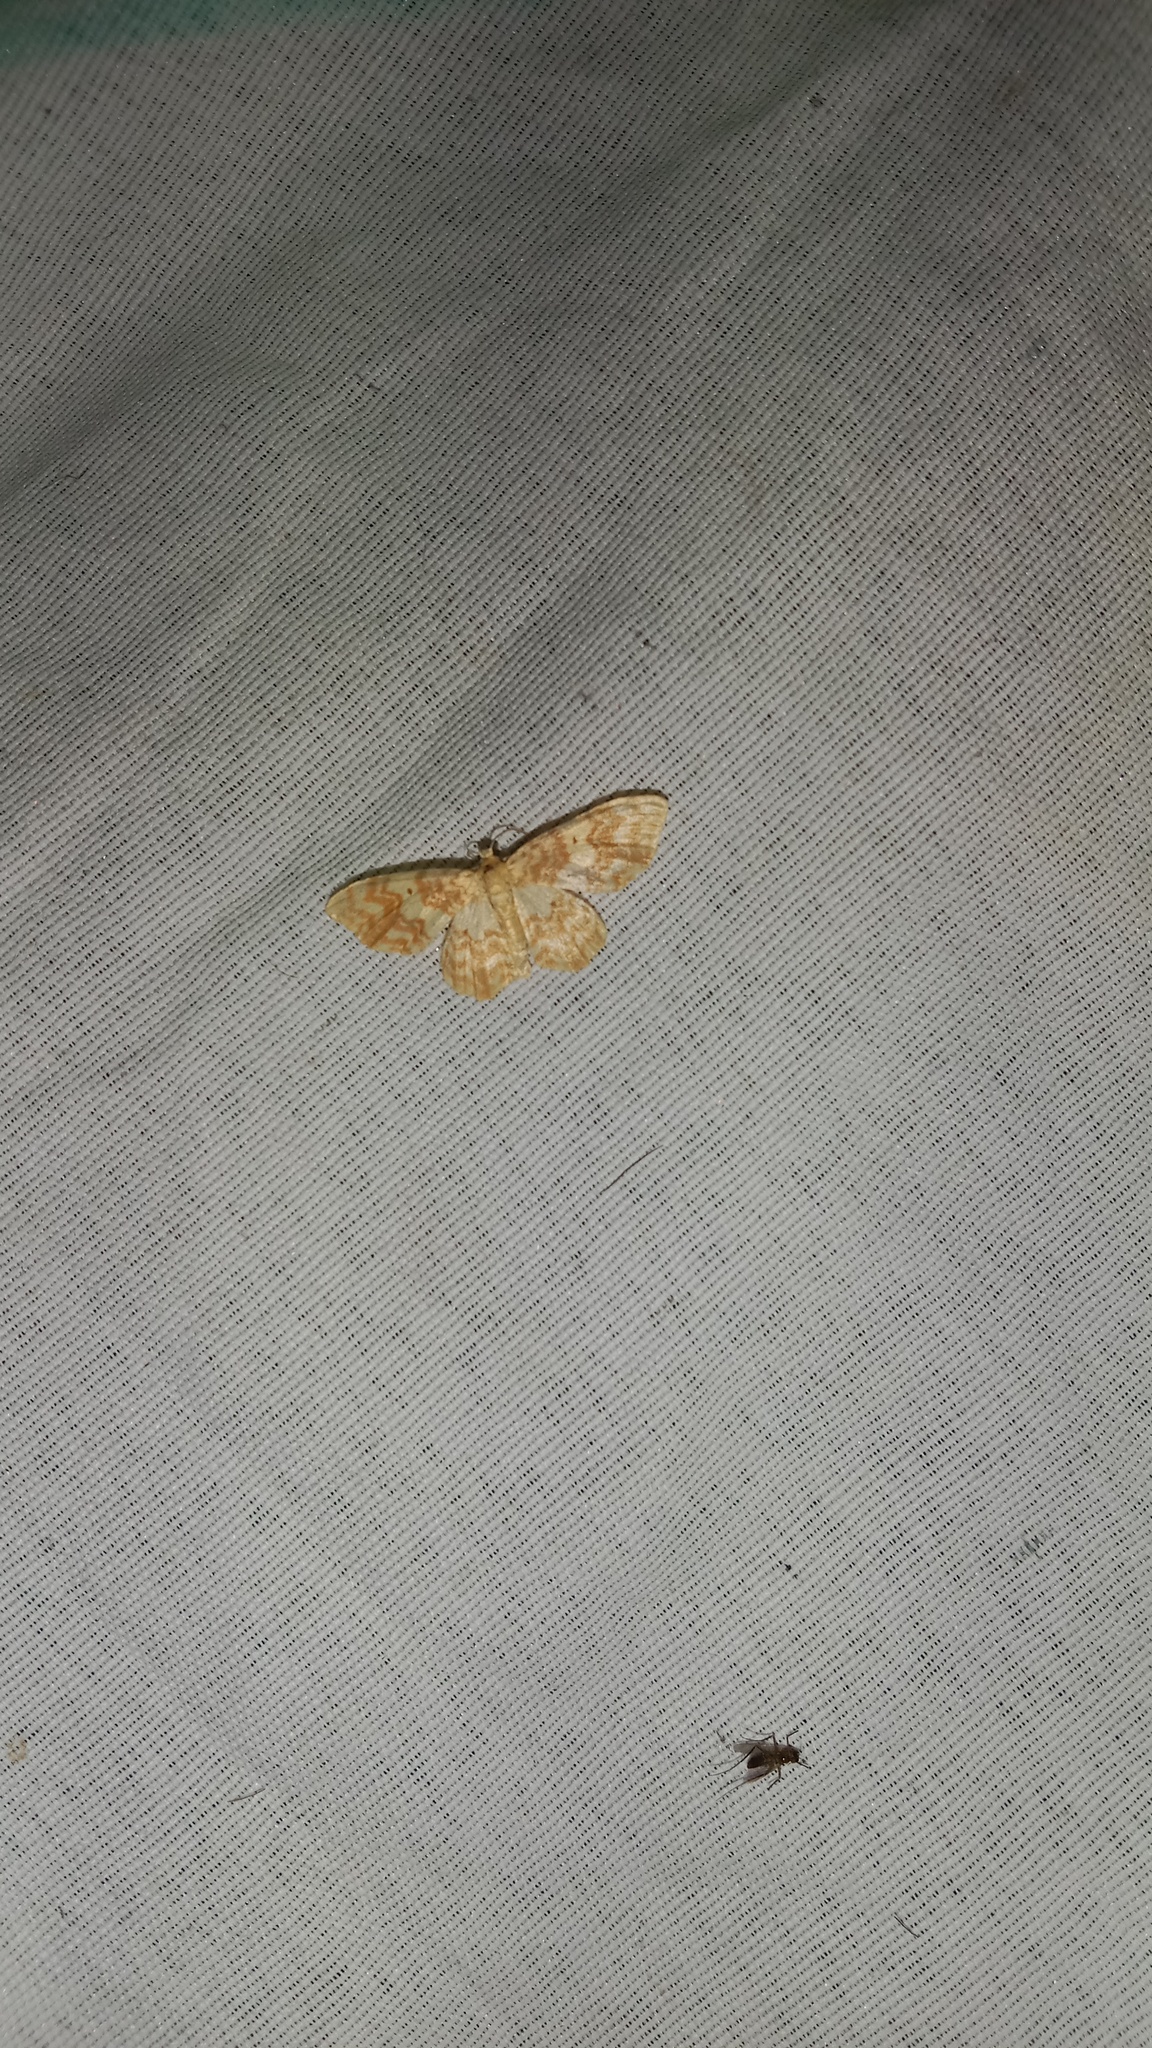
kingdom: Animalia
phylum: Arthropoda
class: Insecta
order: Lepidoptera
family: Geometridae
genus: Hydrelia
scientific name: Hydrelia flammeolaria
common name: Small yellow wave
